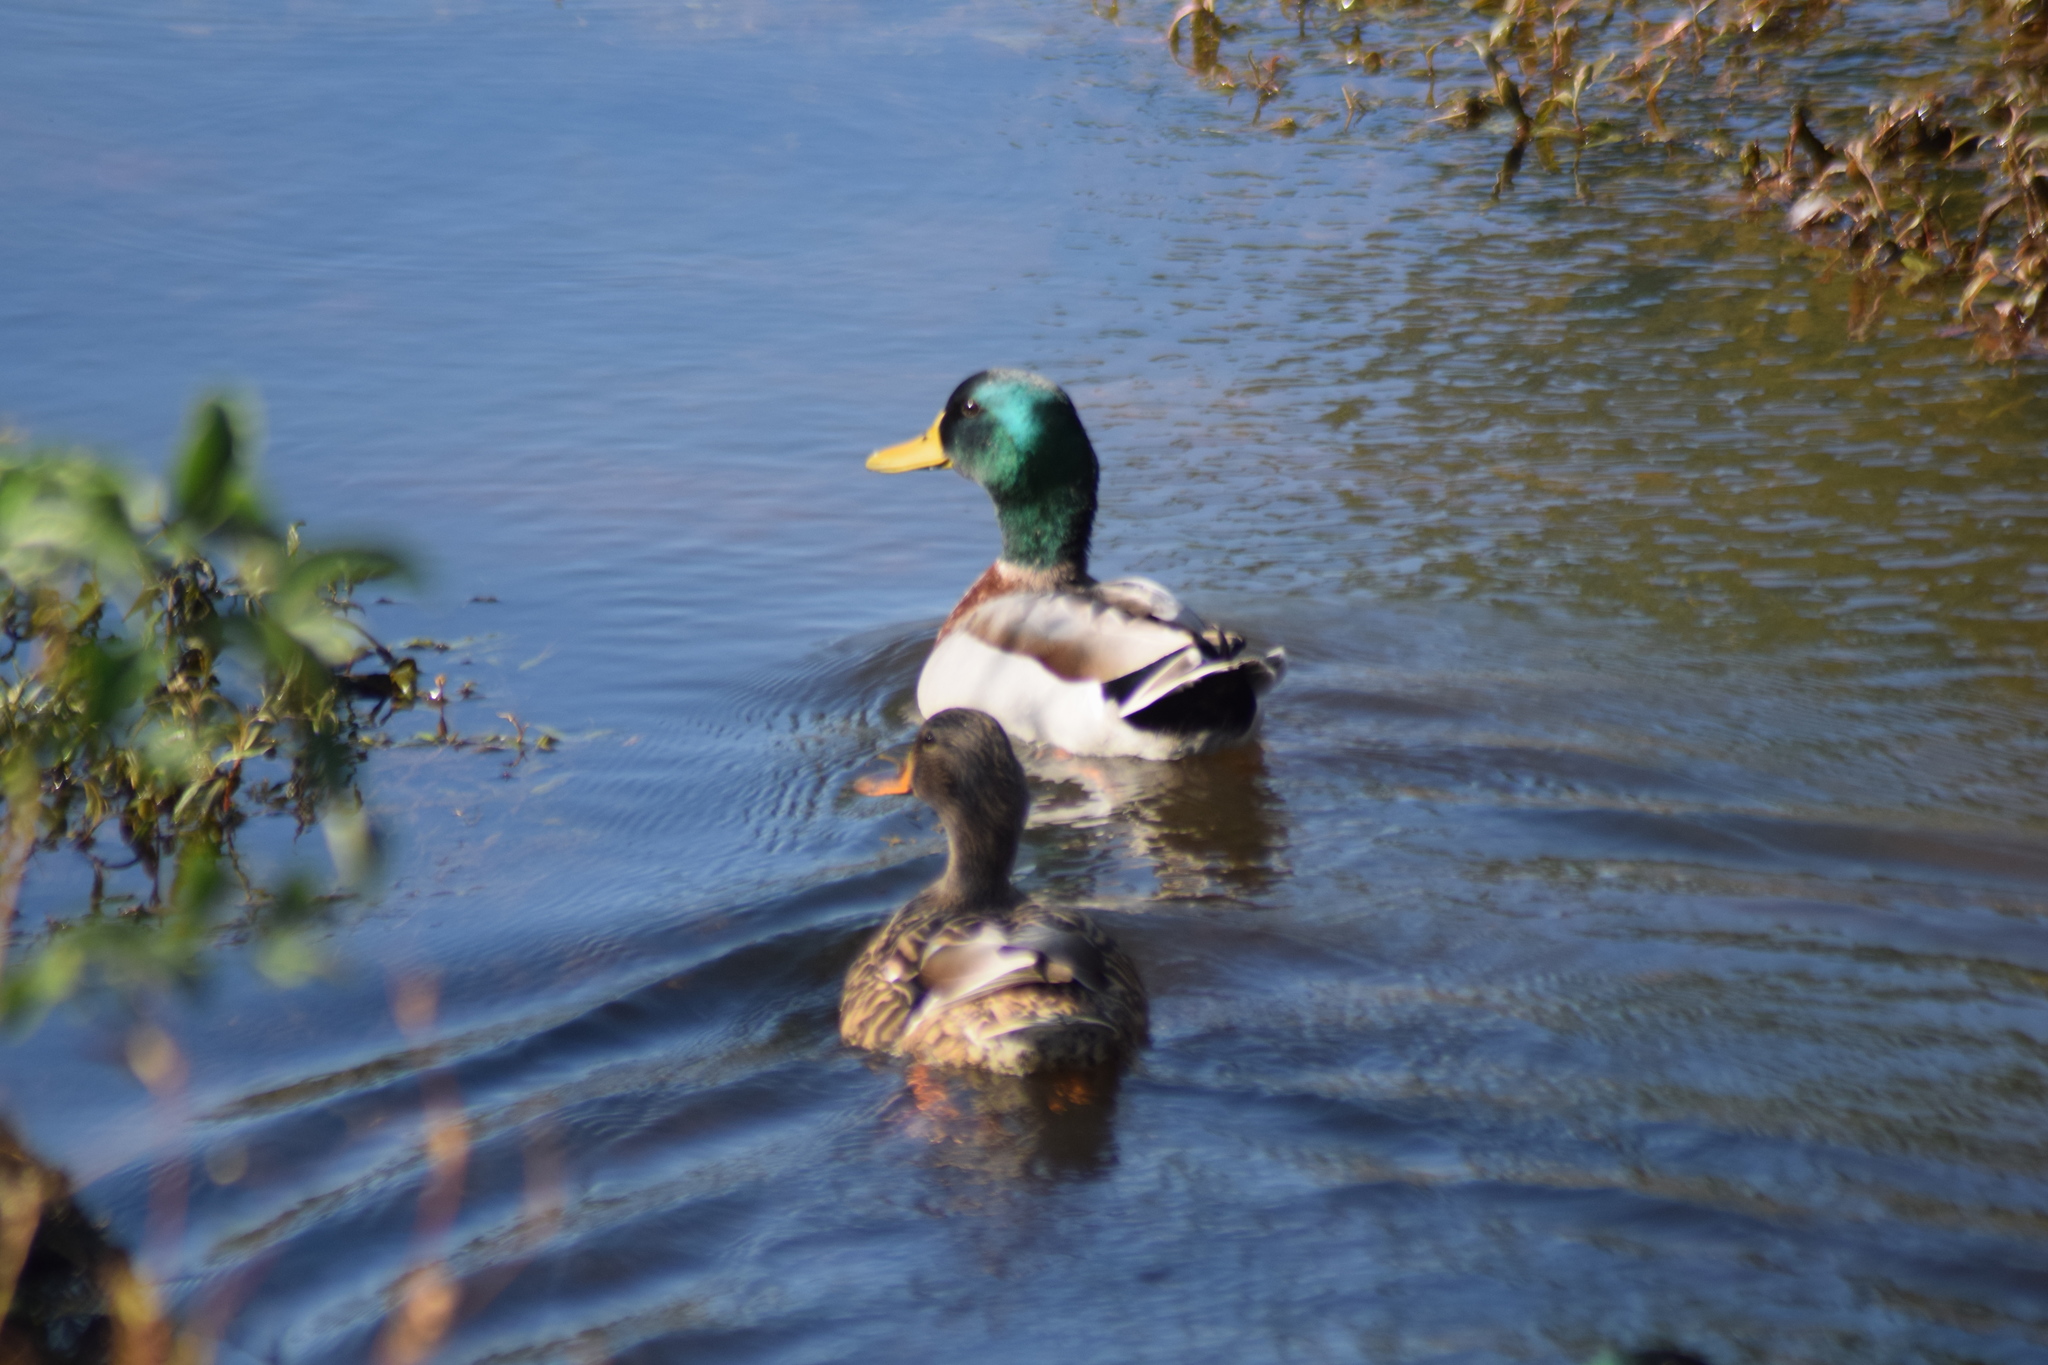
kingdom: Animalia
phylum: Chordata
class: Aves
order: Anseriformes
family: Anatidae
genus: Anas
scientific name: Anas platyrhynchos
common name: Mallard
